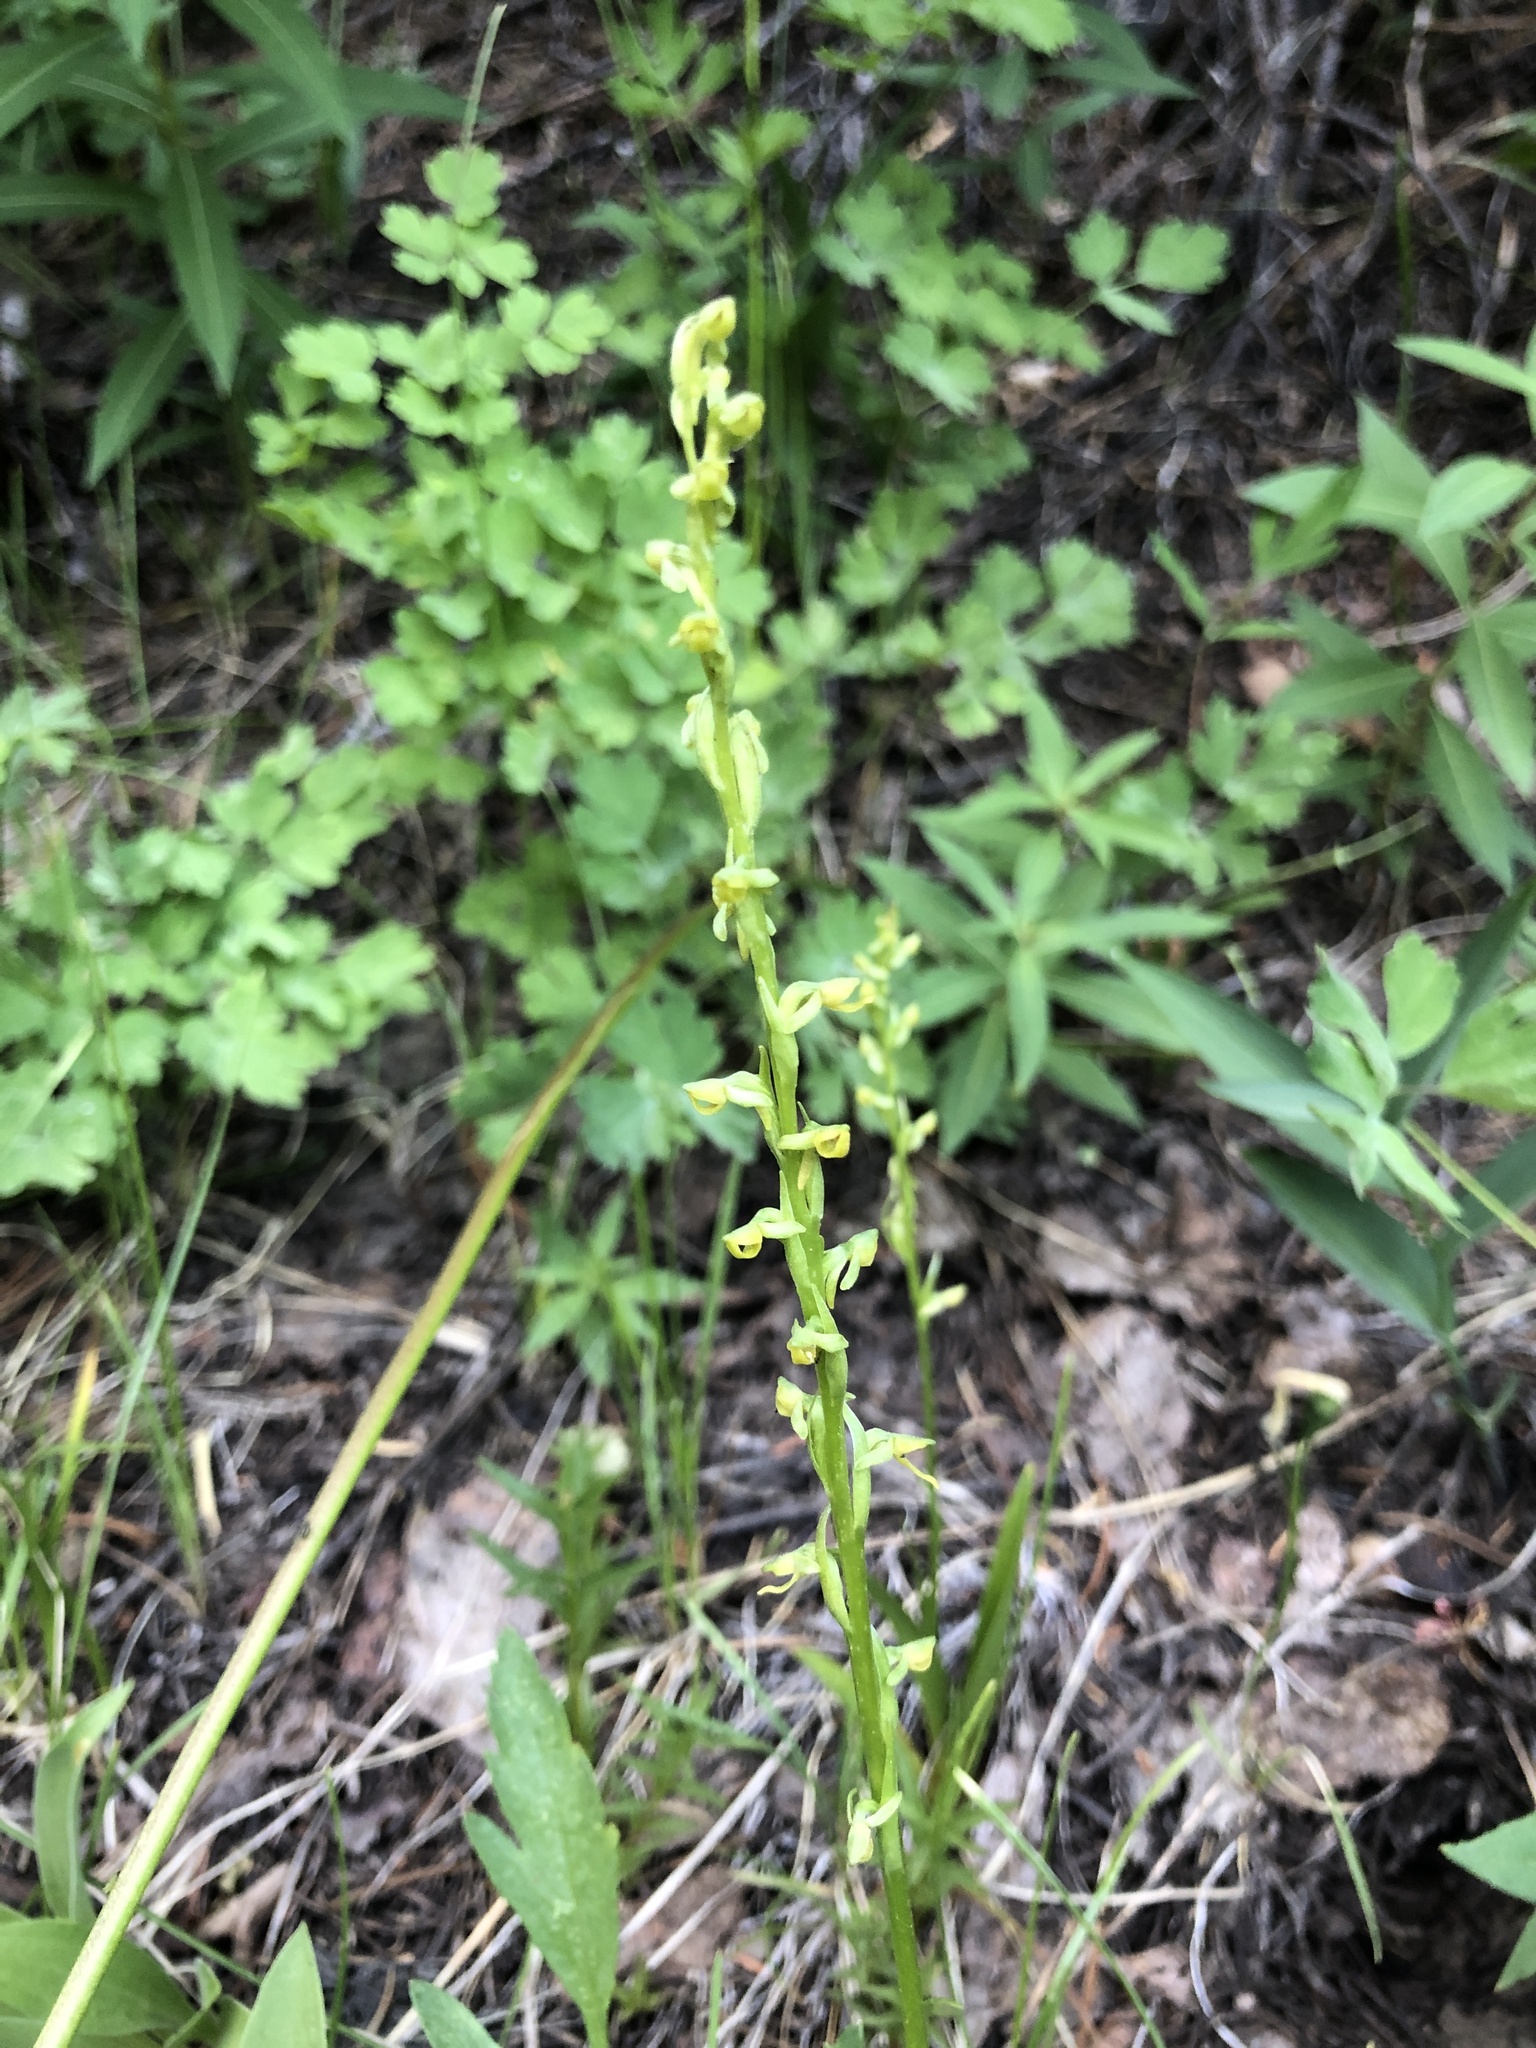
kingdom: Plantae
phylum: Tracheophyta
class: Liliopsida
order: Asparagales
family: Orchidaceae
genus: Platanthera
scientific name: Platanthera tescamnis
